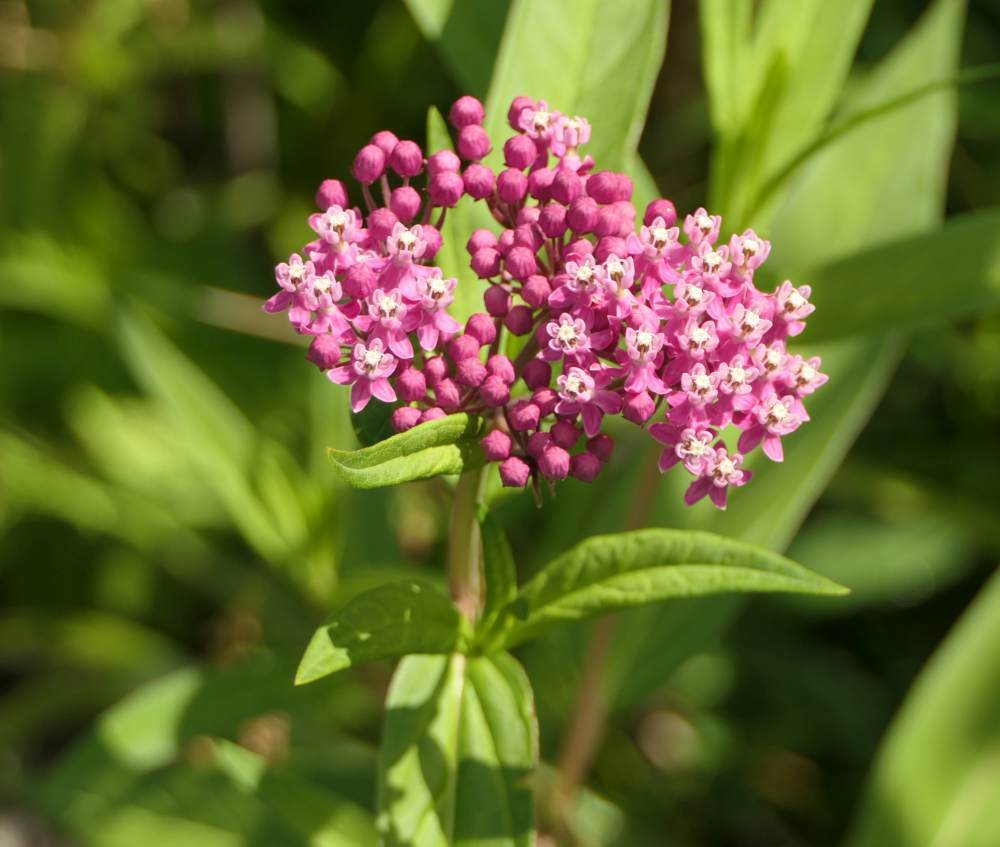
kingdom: Plantae
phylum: Tracheophyta
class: Magnoliopsida
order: Gentianales
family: Apocynaceae
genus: Asclepias
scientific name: Asclepias incarnata
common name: Swamp milkweed
